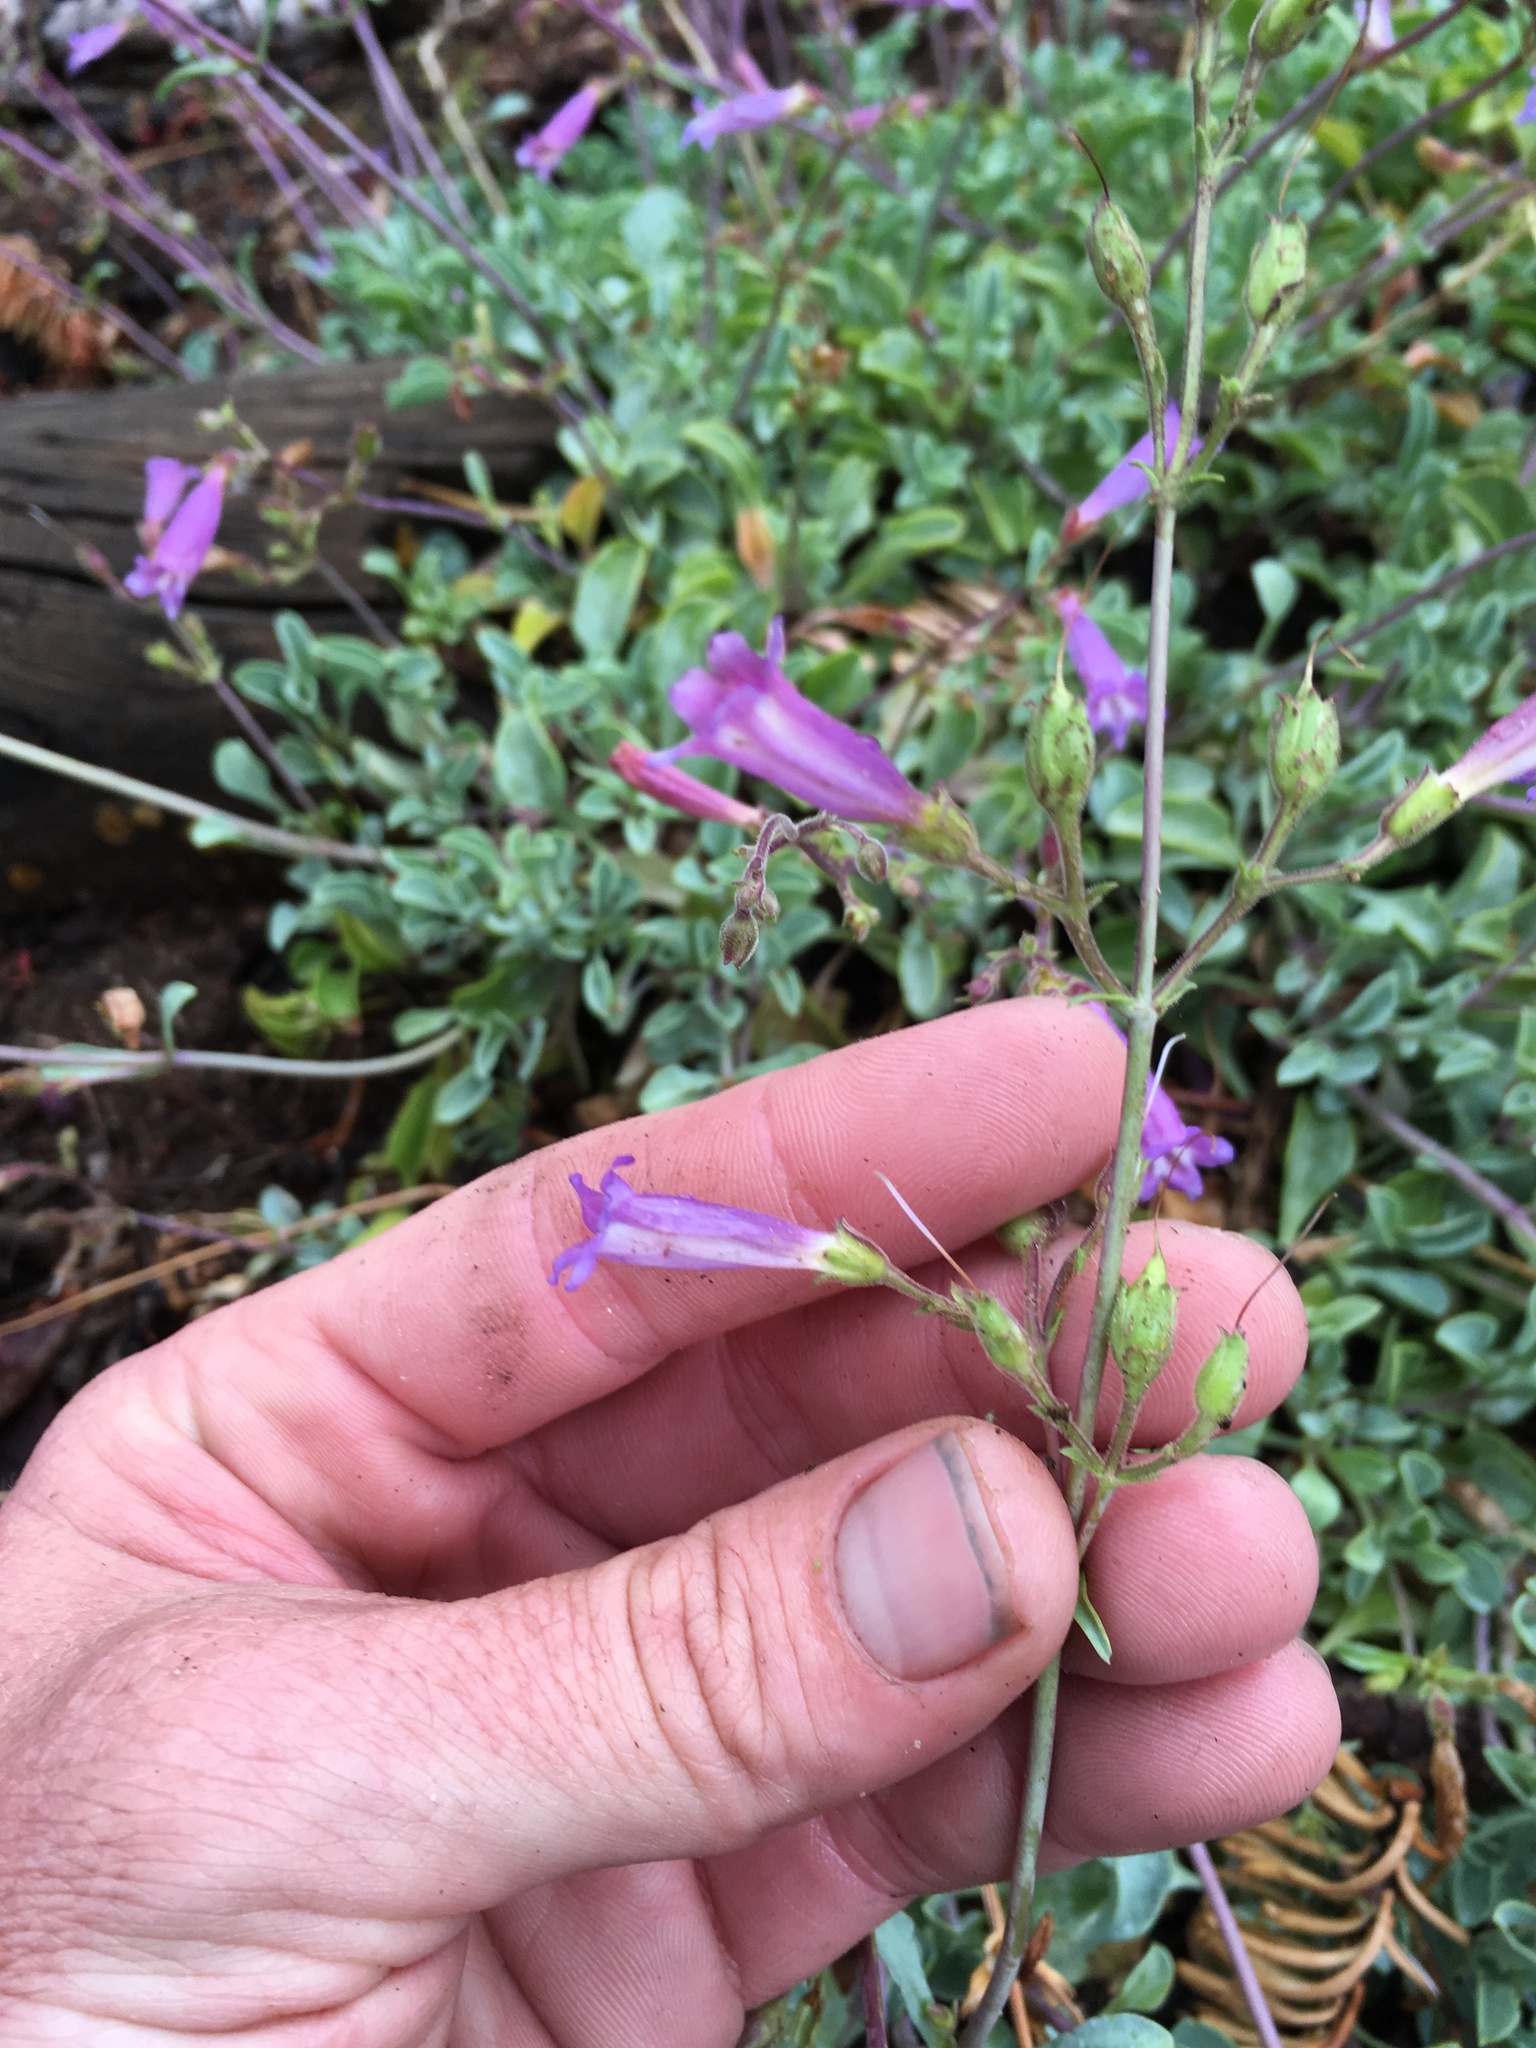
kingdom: Plantae
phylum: Tracheophyta
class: Magnoliopsida
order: Lamiales
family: Plantaginaceae
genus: Penstemon
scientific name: Penstemon caesius
